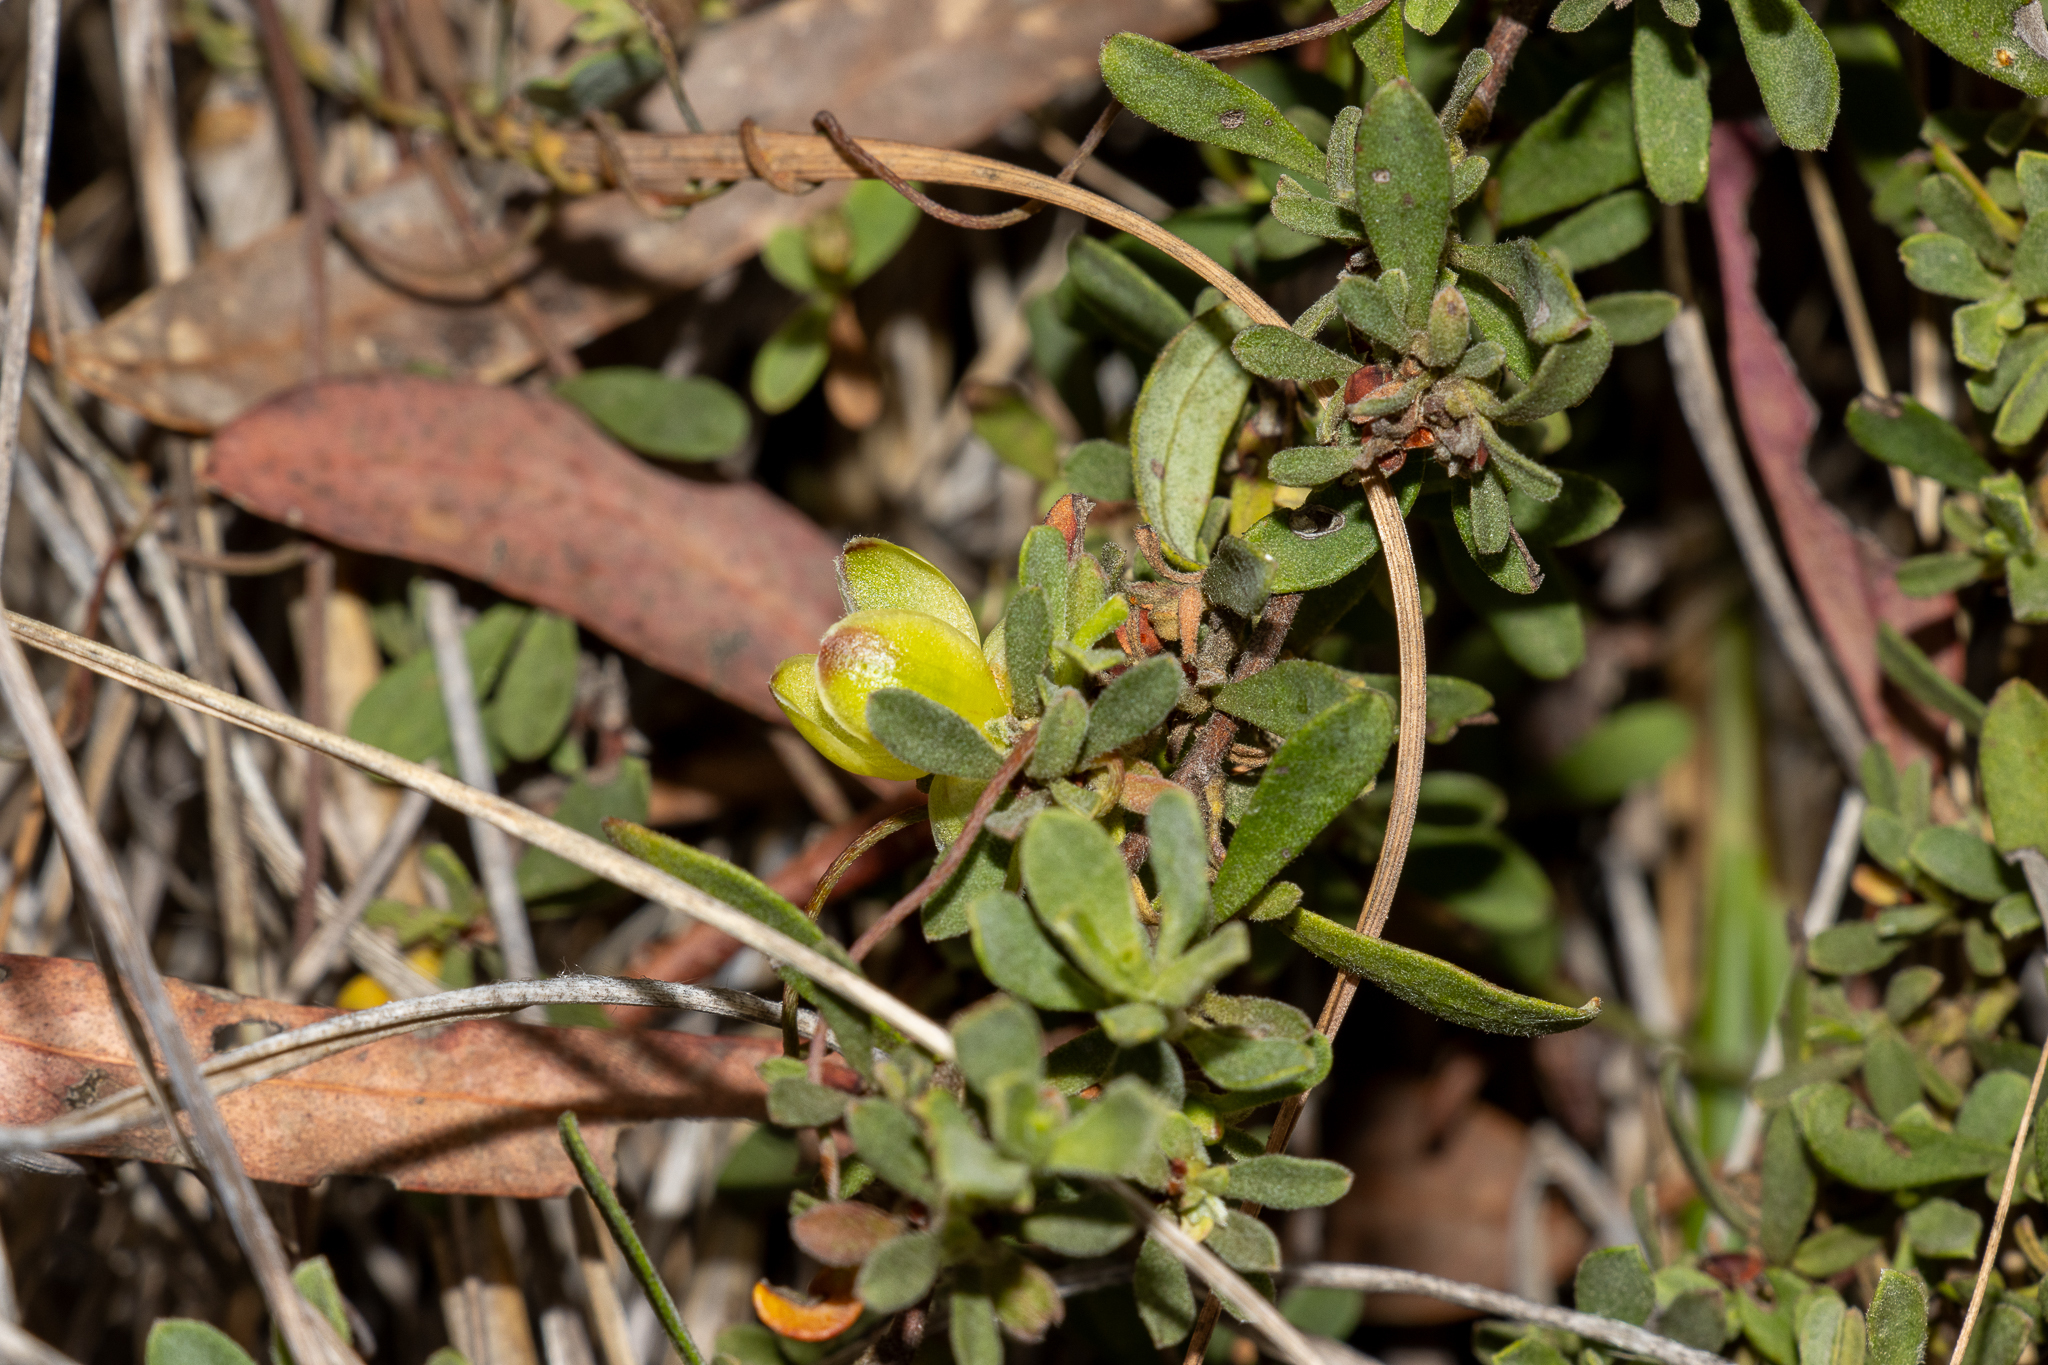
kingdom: Plantae
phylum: Tracheophyta
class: Magnoliopsida
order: Dilleniales
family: Dilleniaceae
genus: Hibbertia
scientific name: Hibbertia obtusifolia
